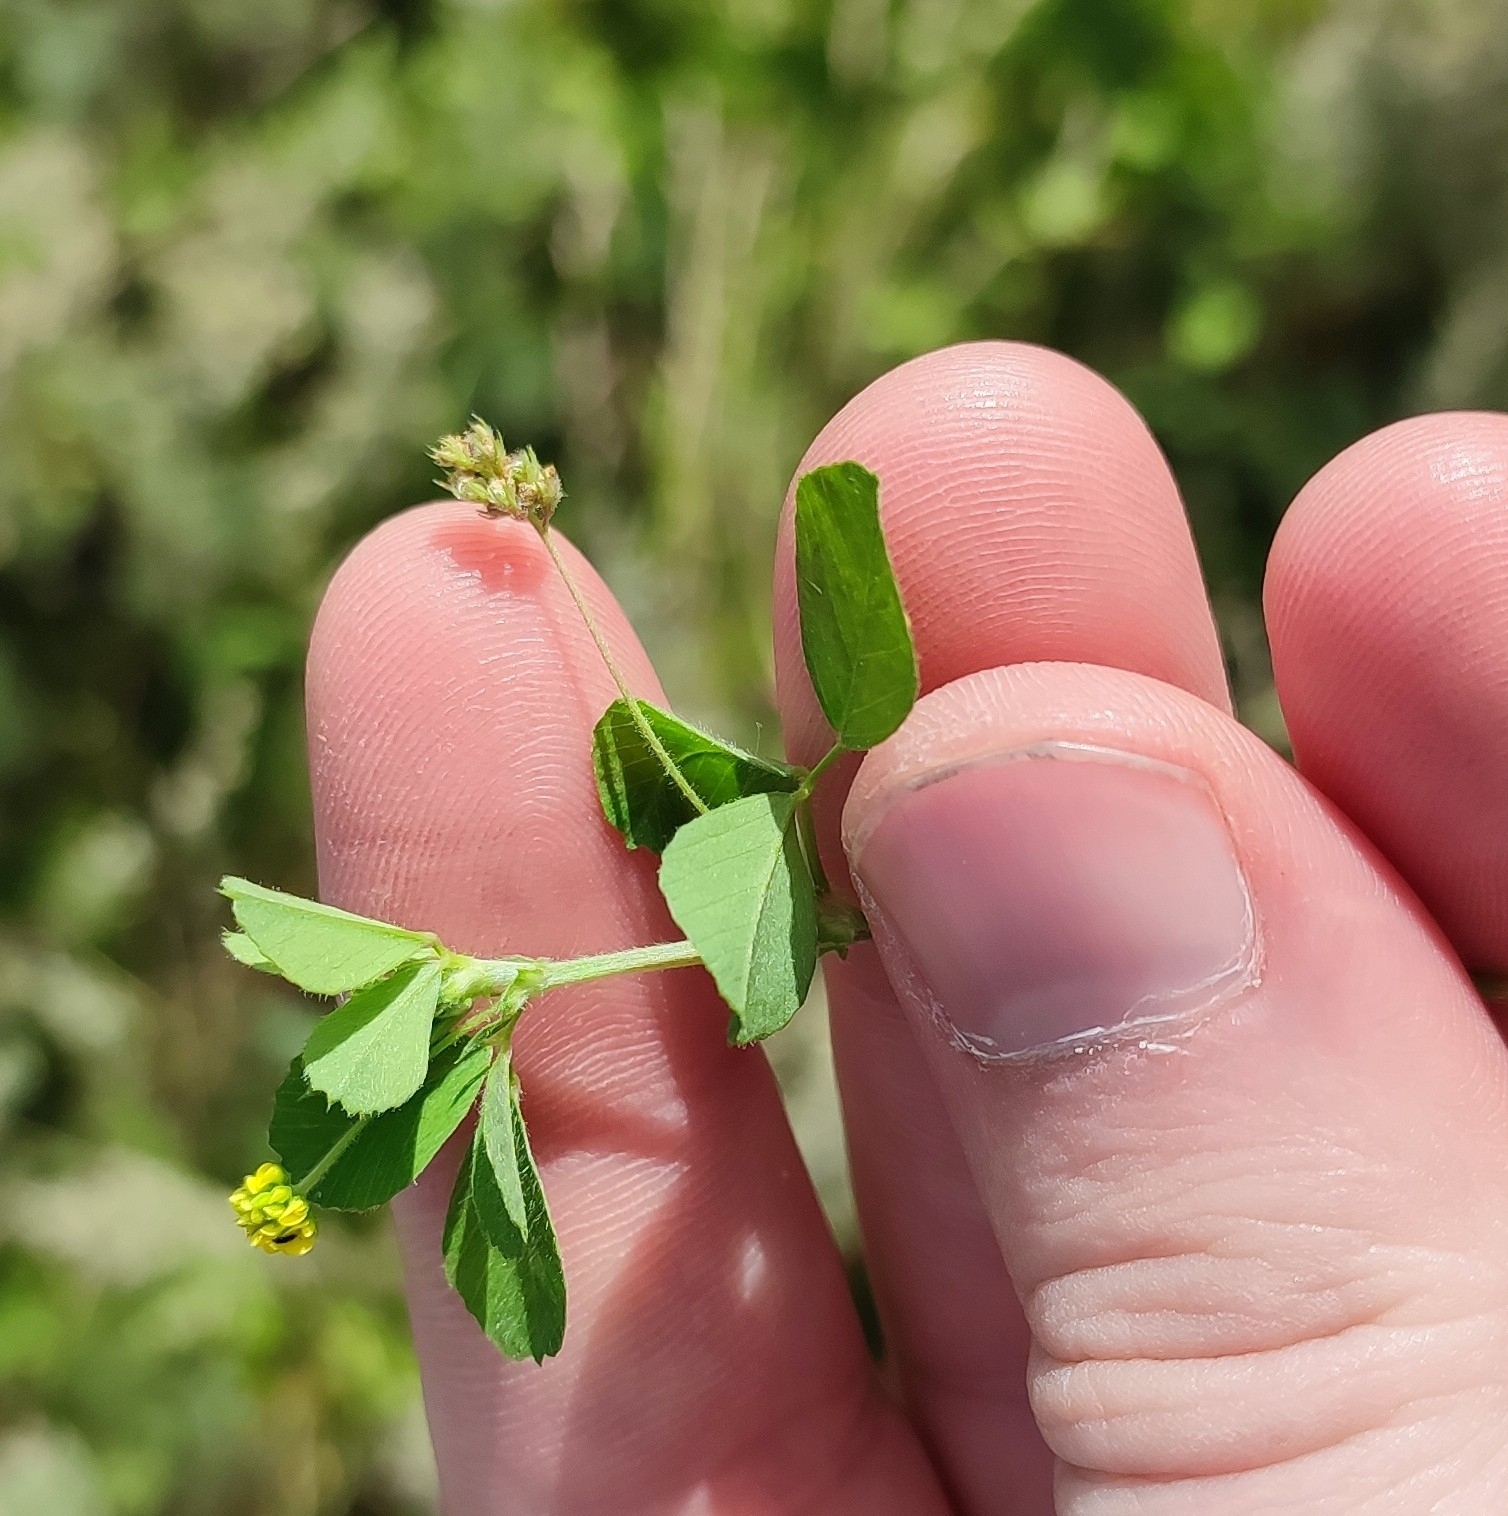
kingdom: Plantae
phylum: Tracheophyta
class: Magnoliopsida
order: Fabales
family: Fabaceae
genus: Medicago
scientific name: Medicago lupulina
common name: Black medick
